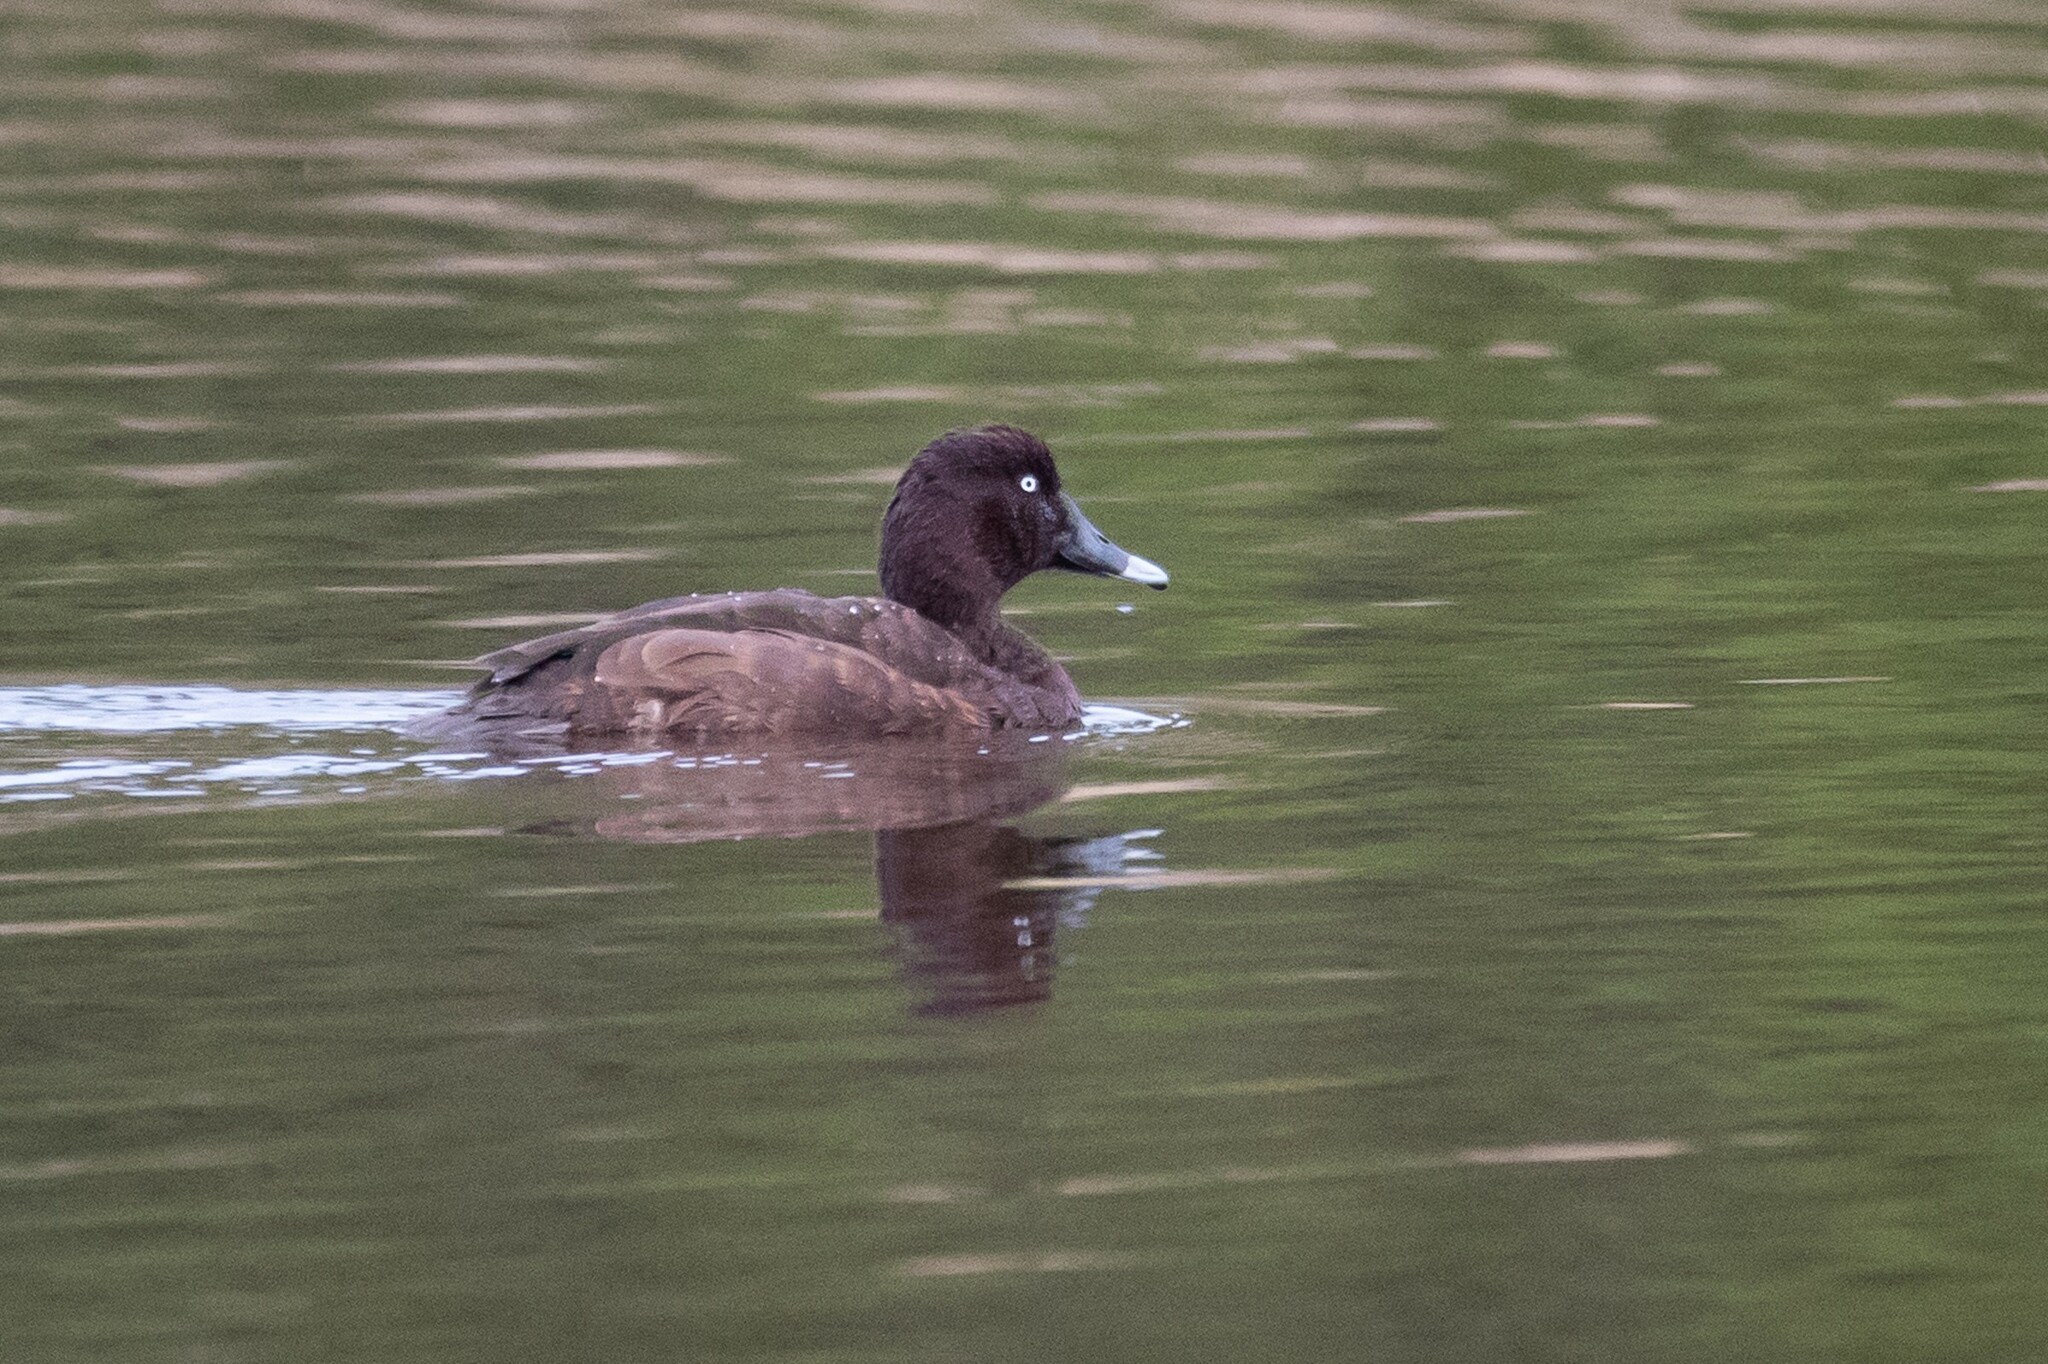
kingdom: Animalia
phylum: Chordata
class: Aves
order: Anseriformes
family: Anatidae
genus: Aythya
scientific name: Aythya australis
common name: Hardhead
